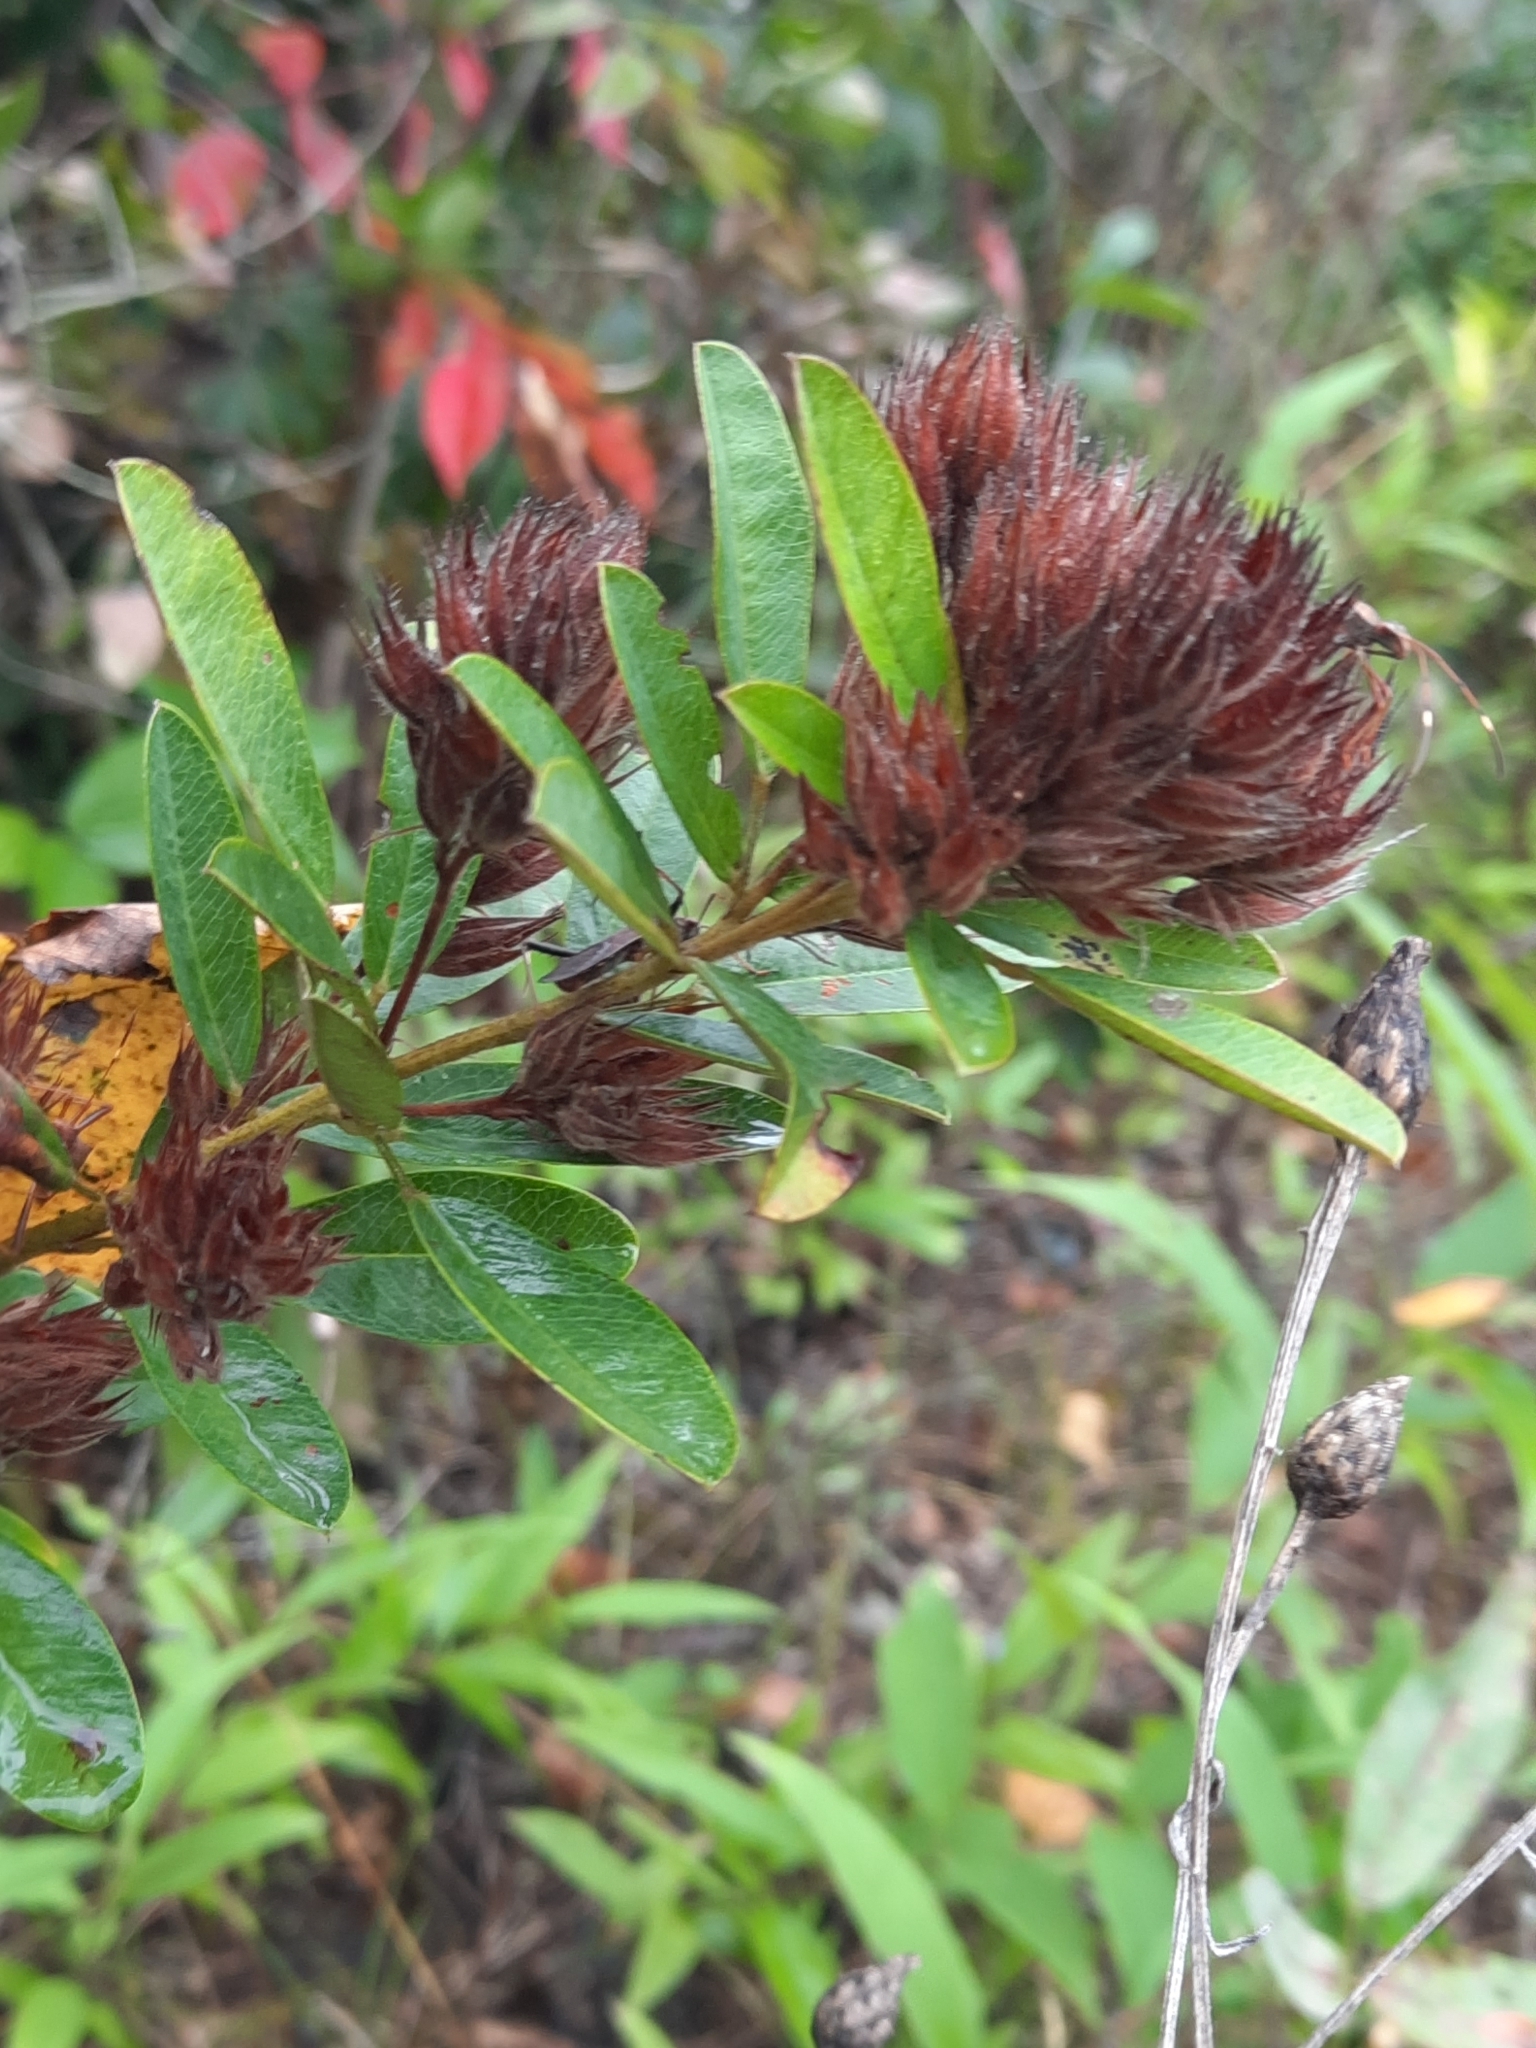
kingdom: Plantae
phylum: Tracheophyta
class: Magnoliopsida
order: Fabales
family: Fabaceae
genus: Lespedeza
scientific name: Lespedeza capitata
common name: Dusty clover
